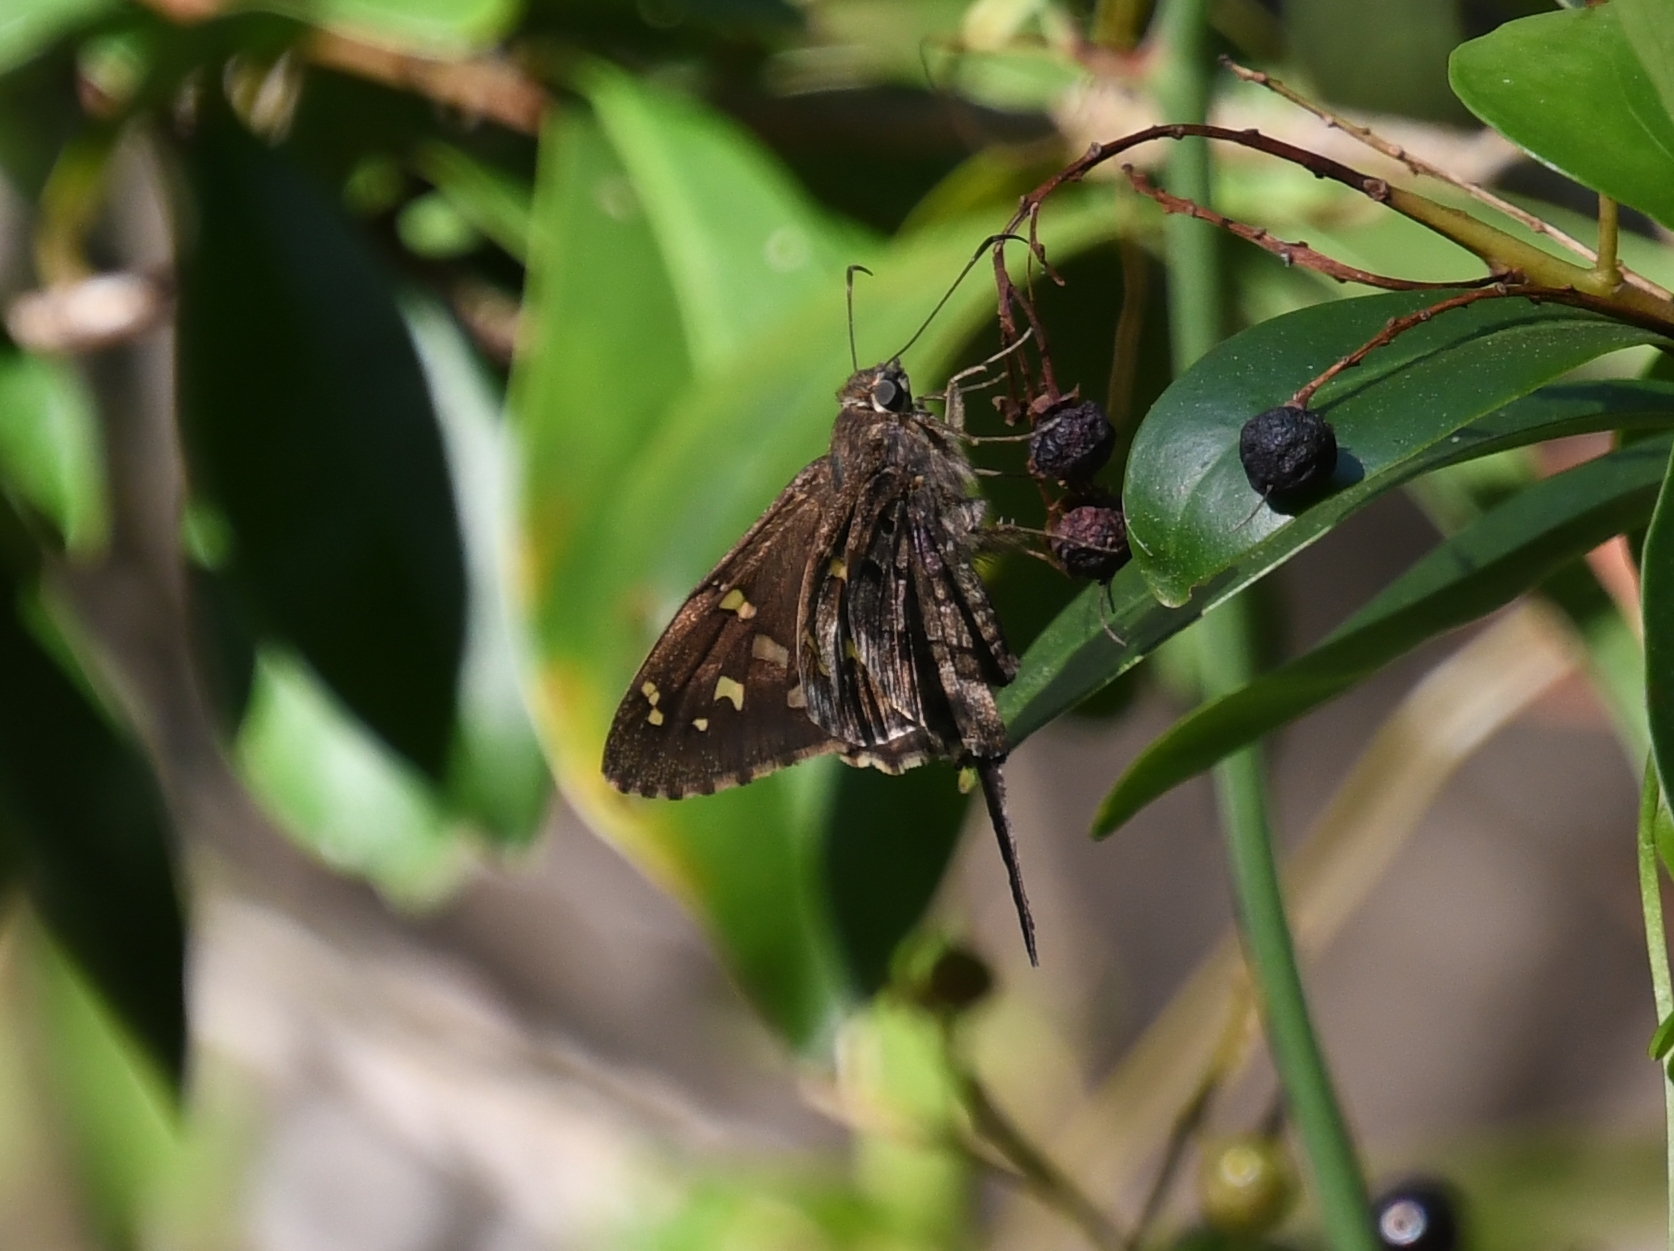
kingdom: Animalia
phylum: Arthropoda
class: Insecta
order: Lepidoptera
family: Hesperiidae
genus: Thorybes
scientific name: Thorybes
